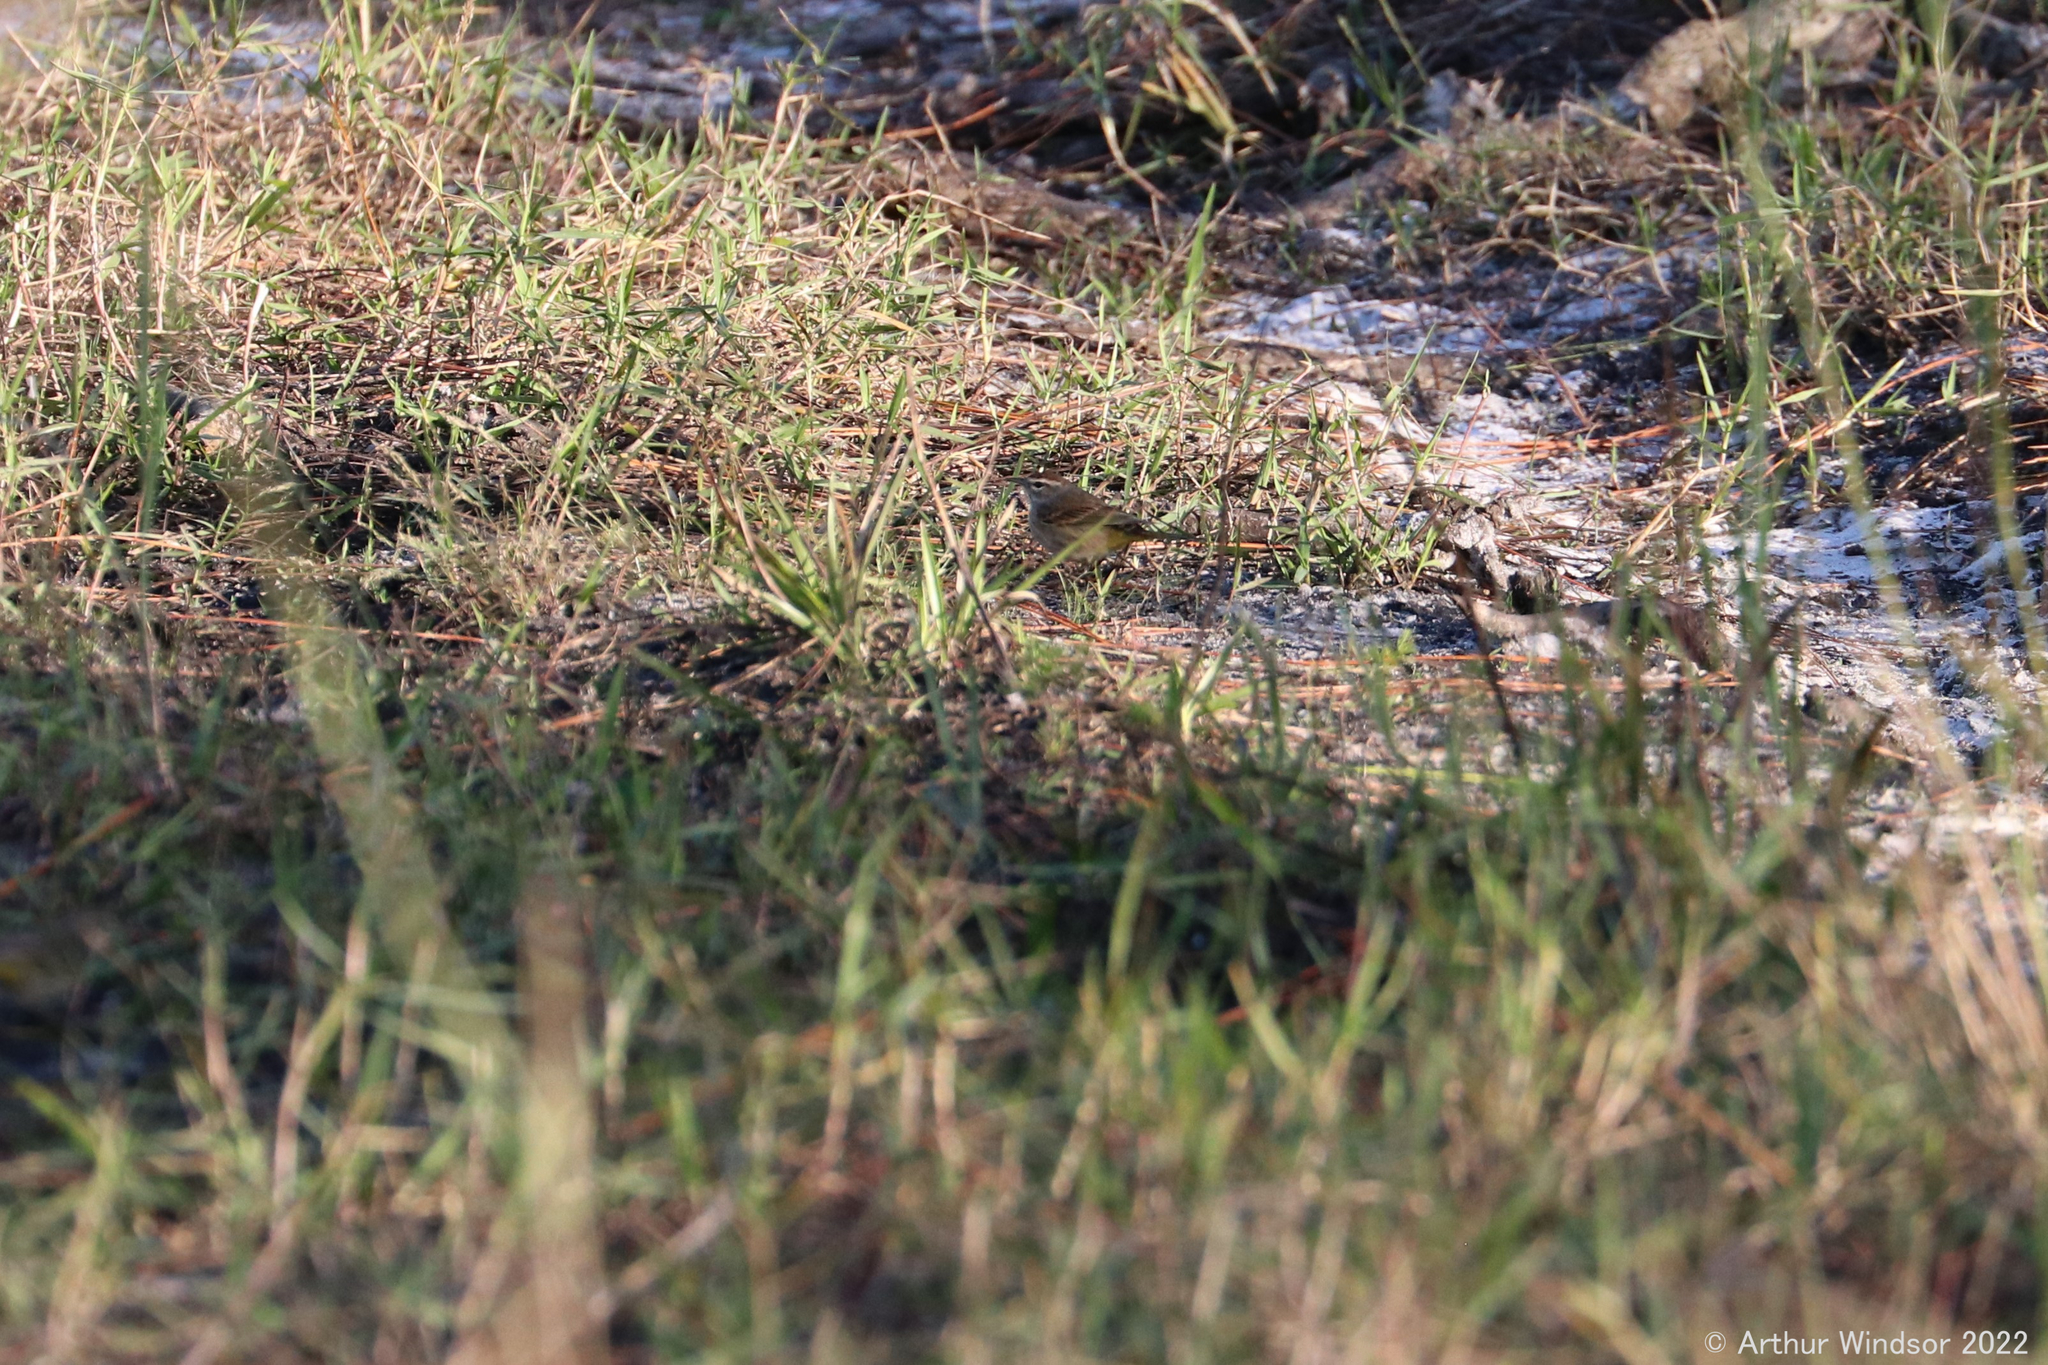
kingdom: Animalia
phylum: Chordata
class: Aves
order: Passeriformes
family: Parulidae
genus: Setophaga
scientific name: Setophaga palmarum
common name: Palm warbler
